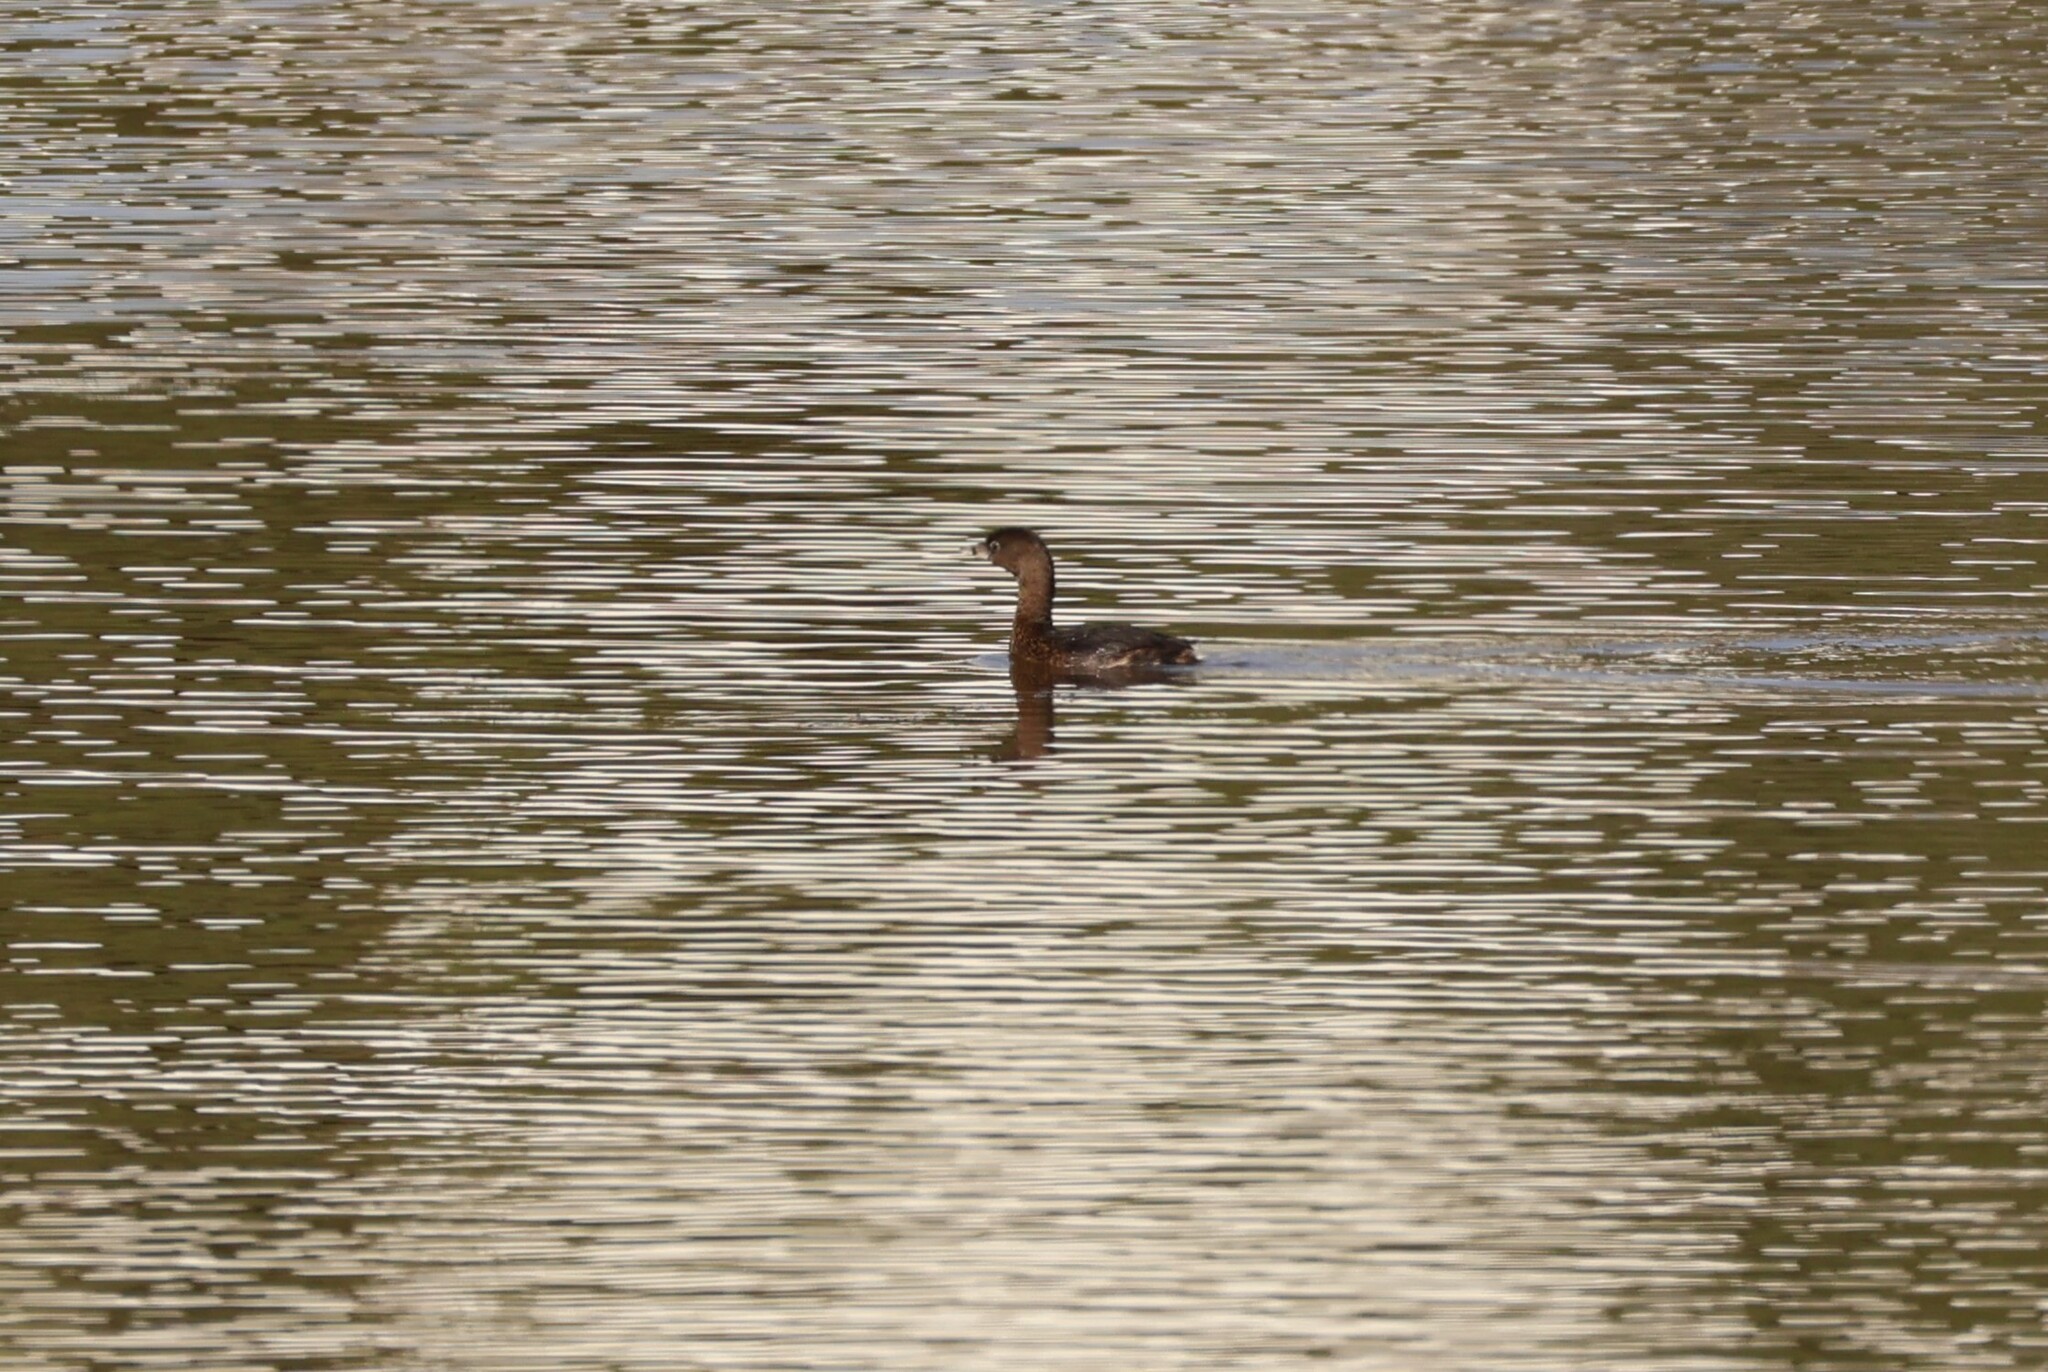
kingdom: Animalia
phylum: Chordata
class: Aves
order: Podicipediformes
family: Podicipedidae
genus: Podilymbus
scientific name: Podilymbus podiceps
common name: Pied-billed grebe
